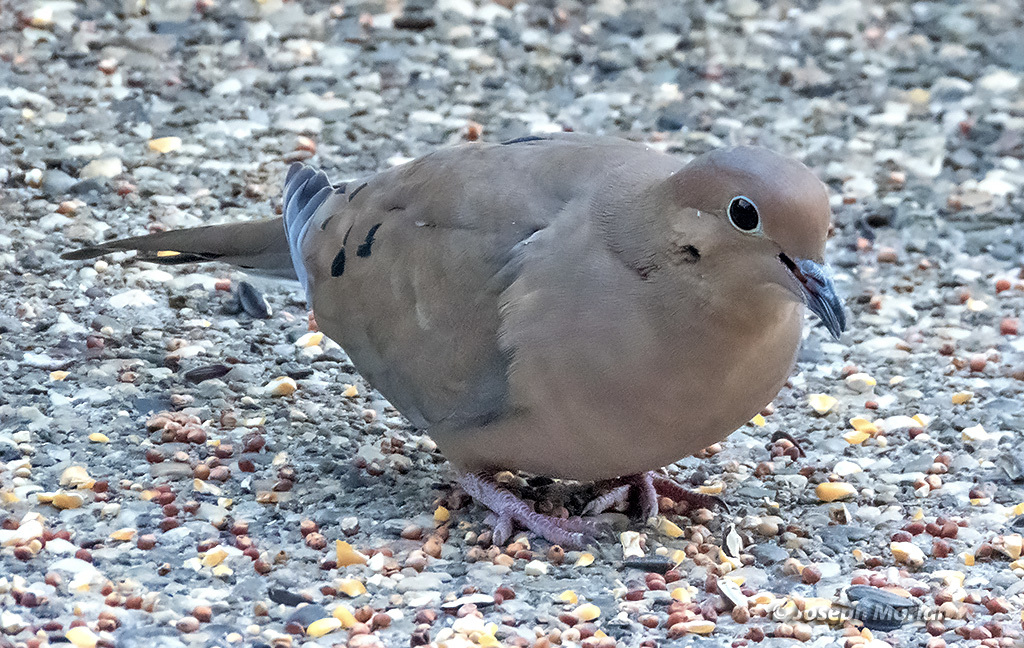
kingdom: Animalia
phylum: Chordata
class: Aves
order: Columbiformes
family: Columbidae
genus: Zenaida
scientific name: Zenaida macroura
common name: Mourning dove
